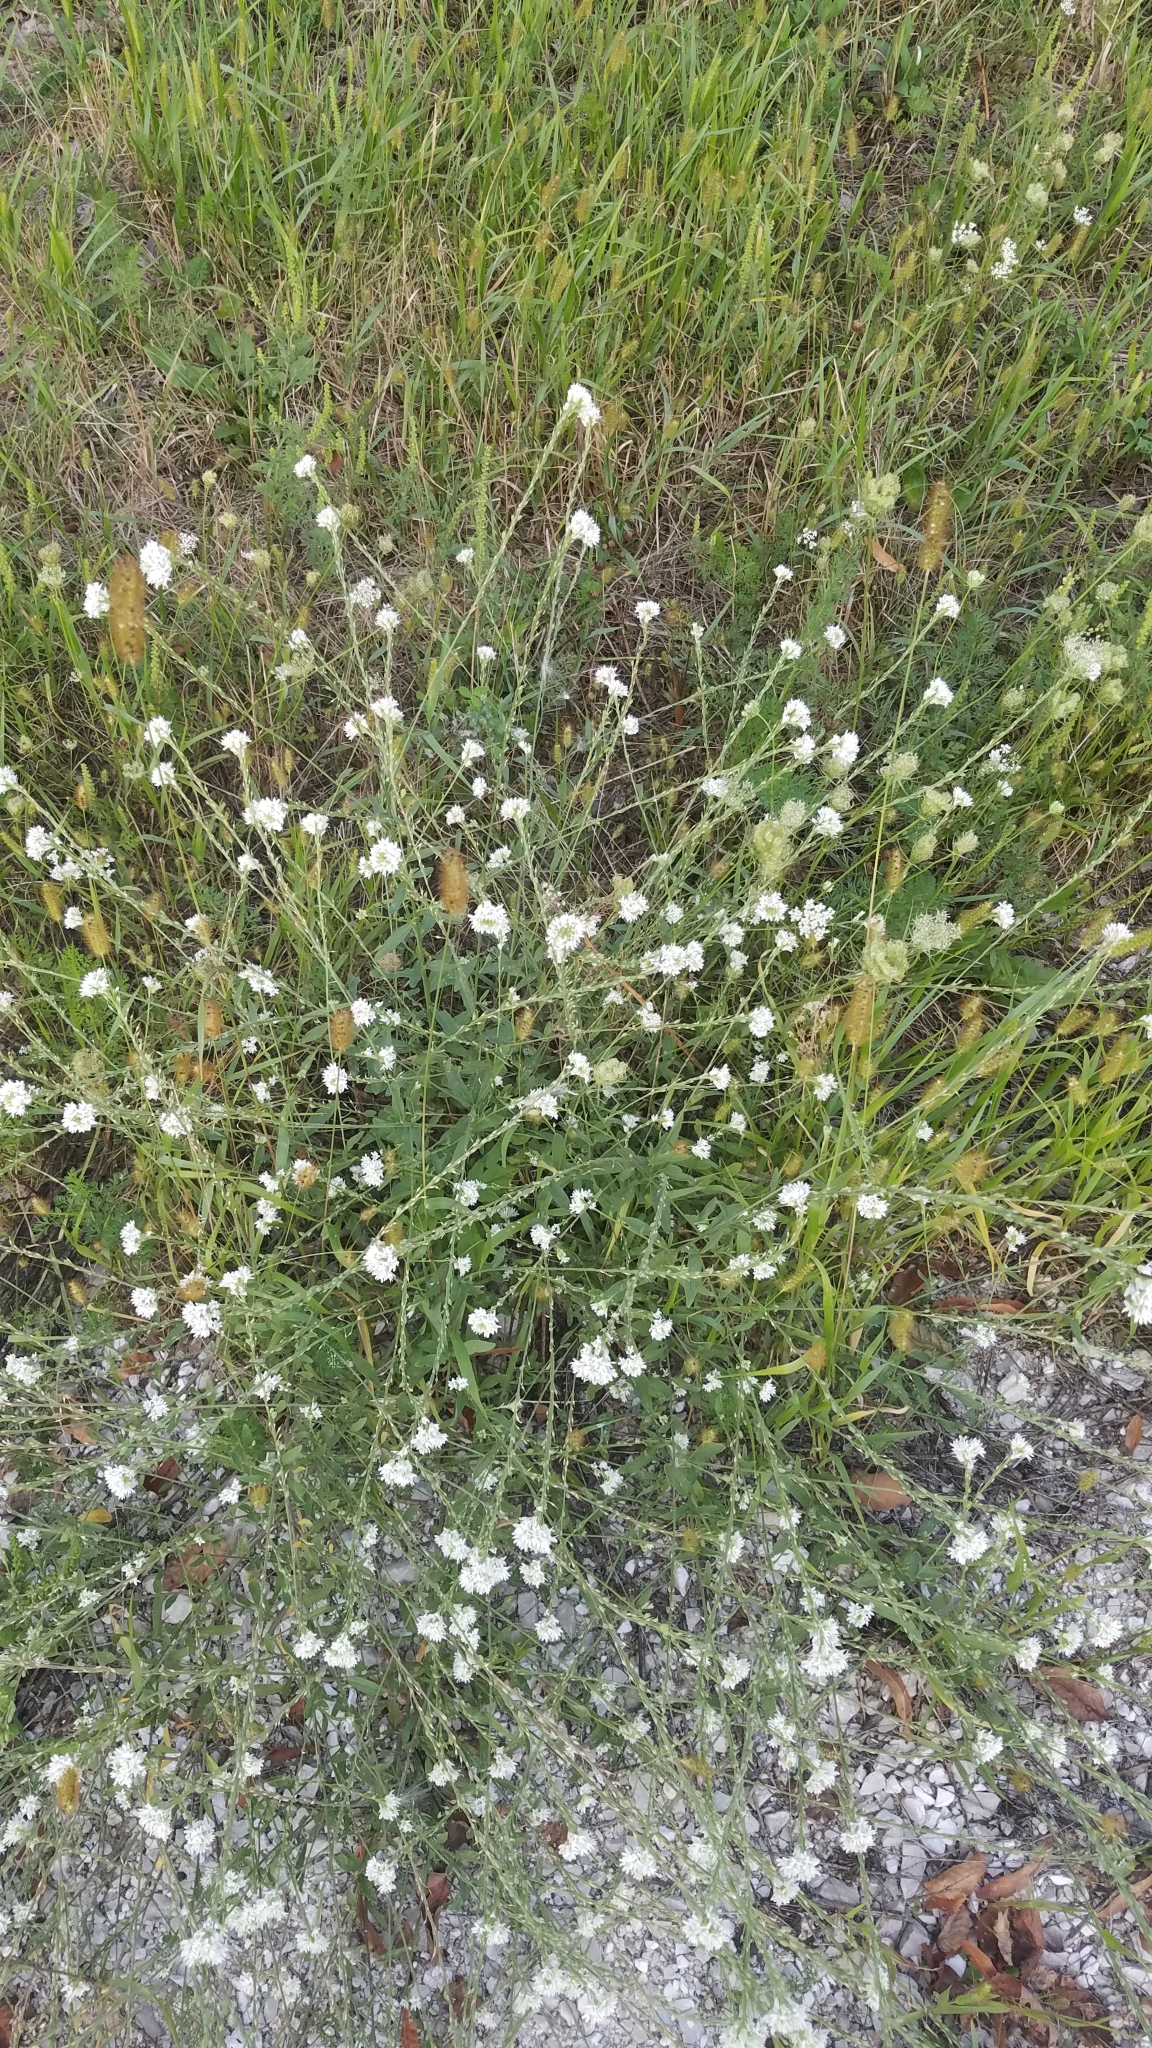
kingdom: Plantae
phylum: Tracheophyta
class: Magnoliopsida
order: Brassicales
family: Brassicaceae
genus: Berteroa
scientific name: Berteroa incana
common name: Hoary alison
